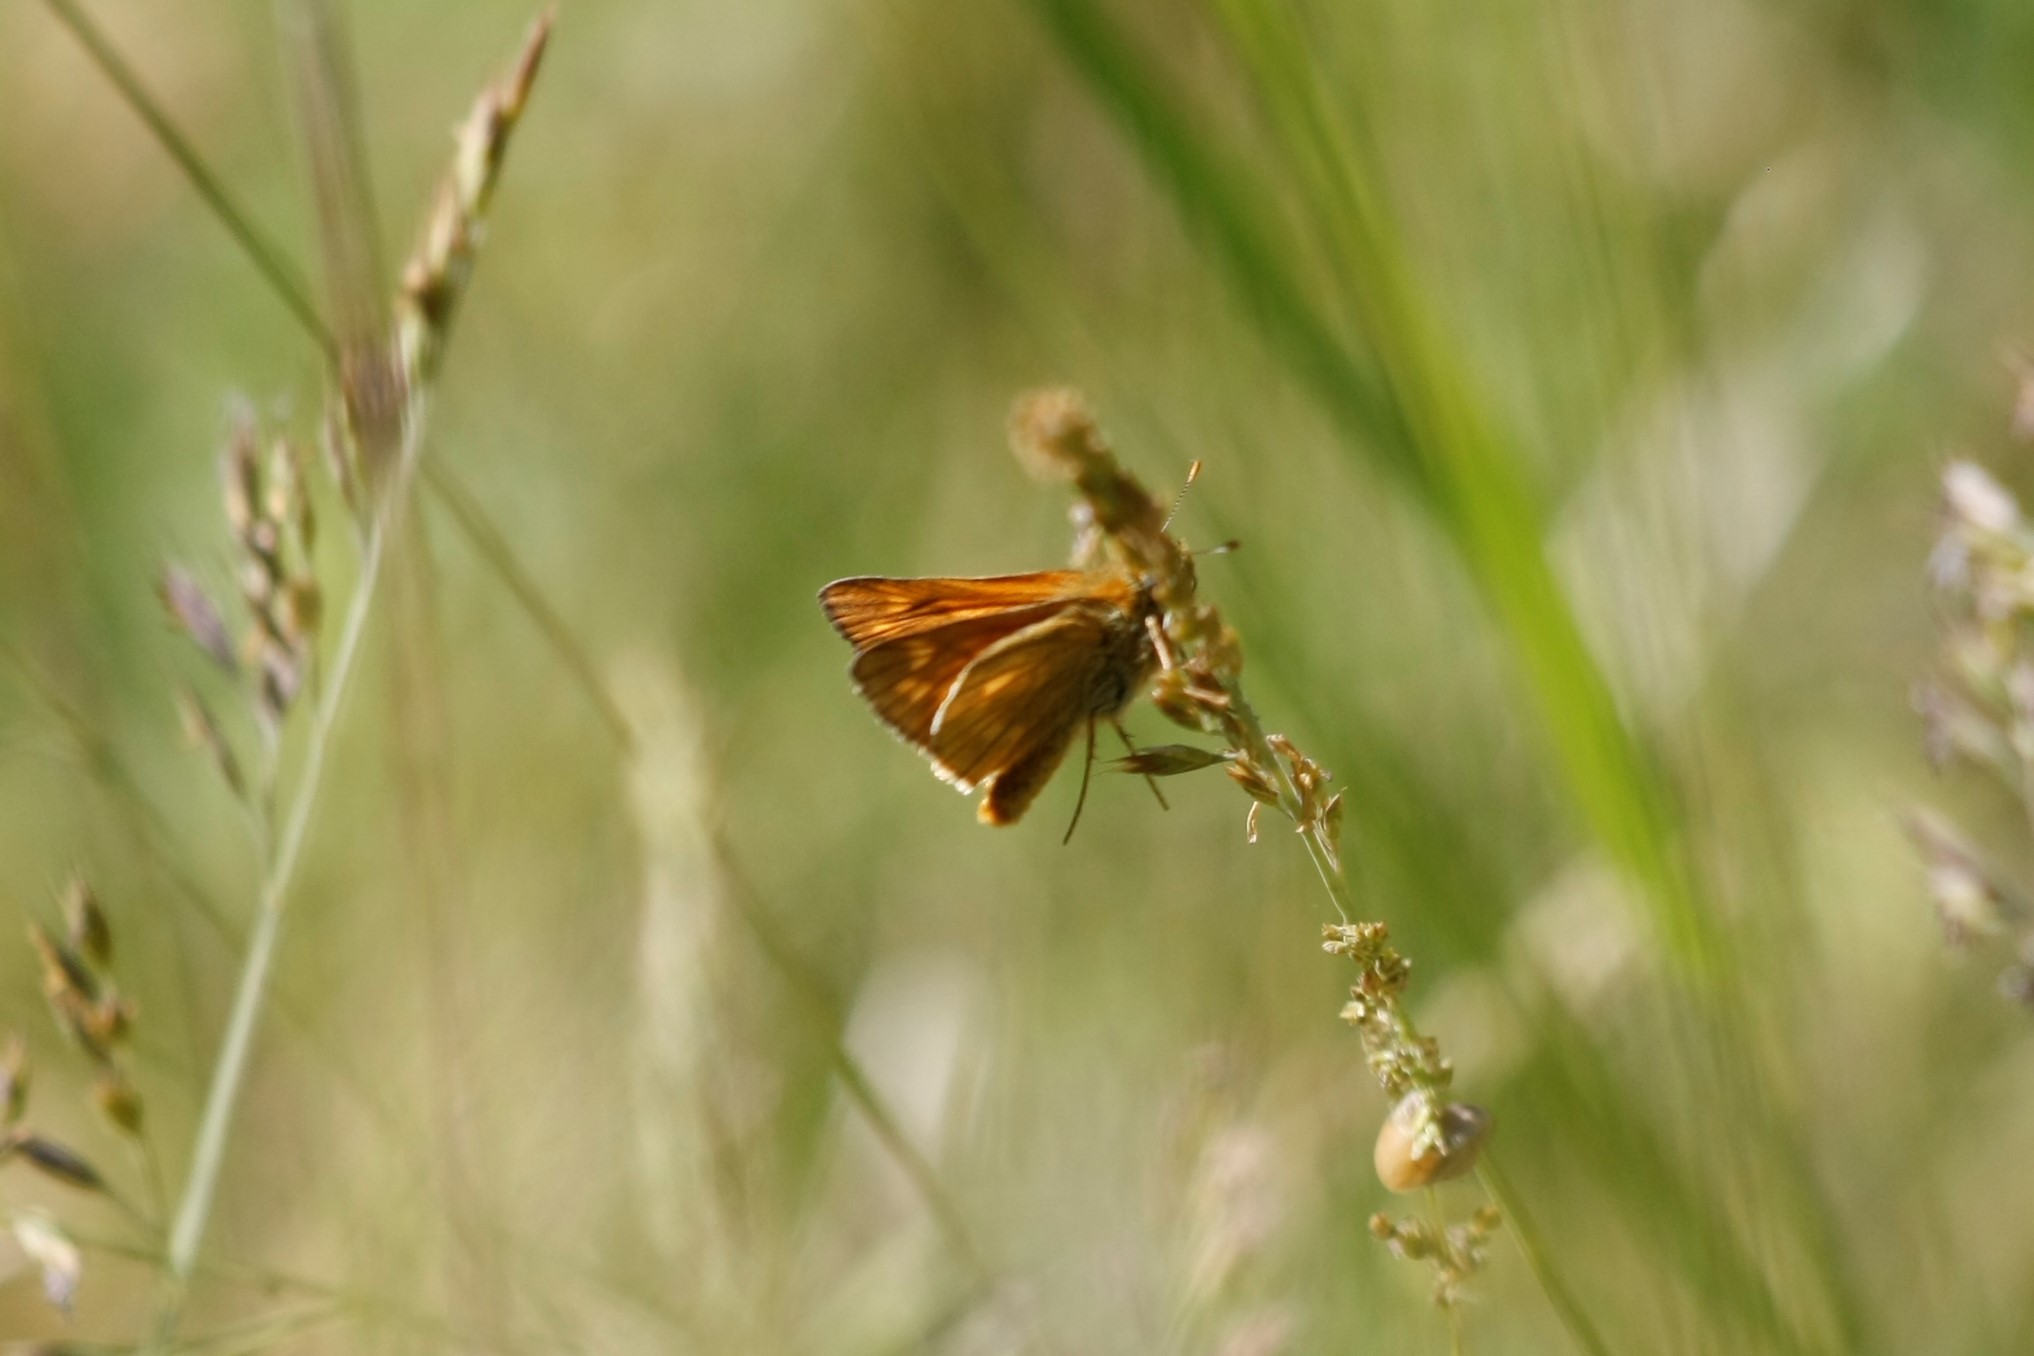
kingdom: Animalia
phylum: Arthropoda
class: Insecta
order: Lepidoptera
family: Hesperiidae
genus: Ochlodes
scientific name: Ochlodes venata
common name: Large skipper
